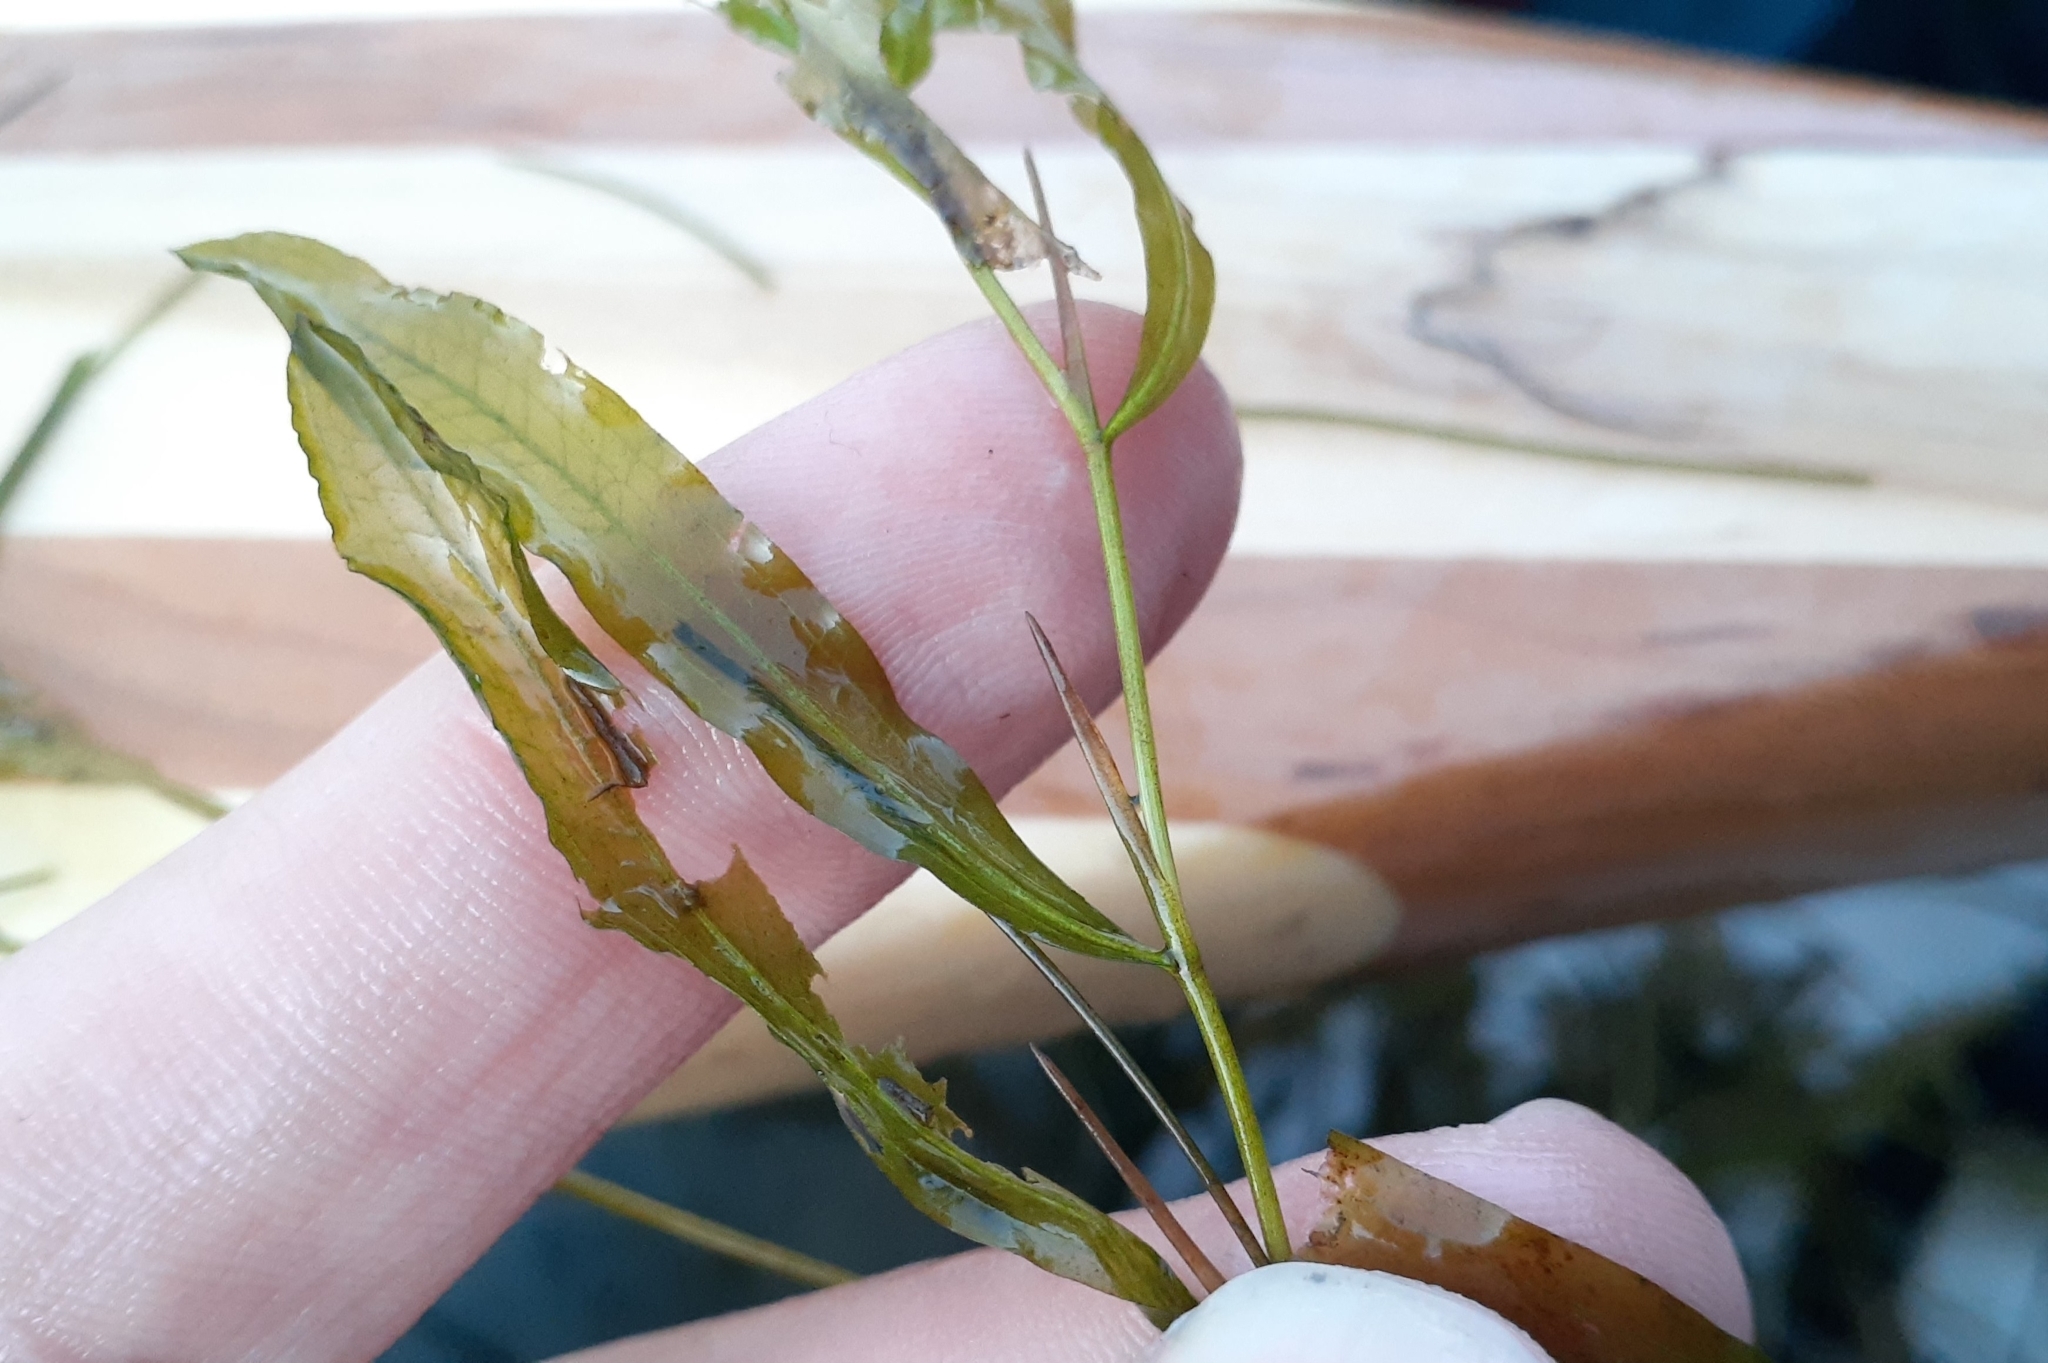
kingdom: Plantae
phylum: Tracheophyta
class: Liliopsida
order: Alismatales
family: Potamogetonaceae
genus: Potamogeton
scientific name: Potamogeton gramineus
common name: Various-leaved pondweed
